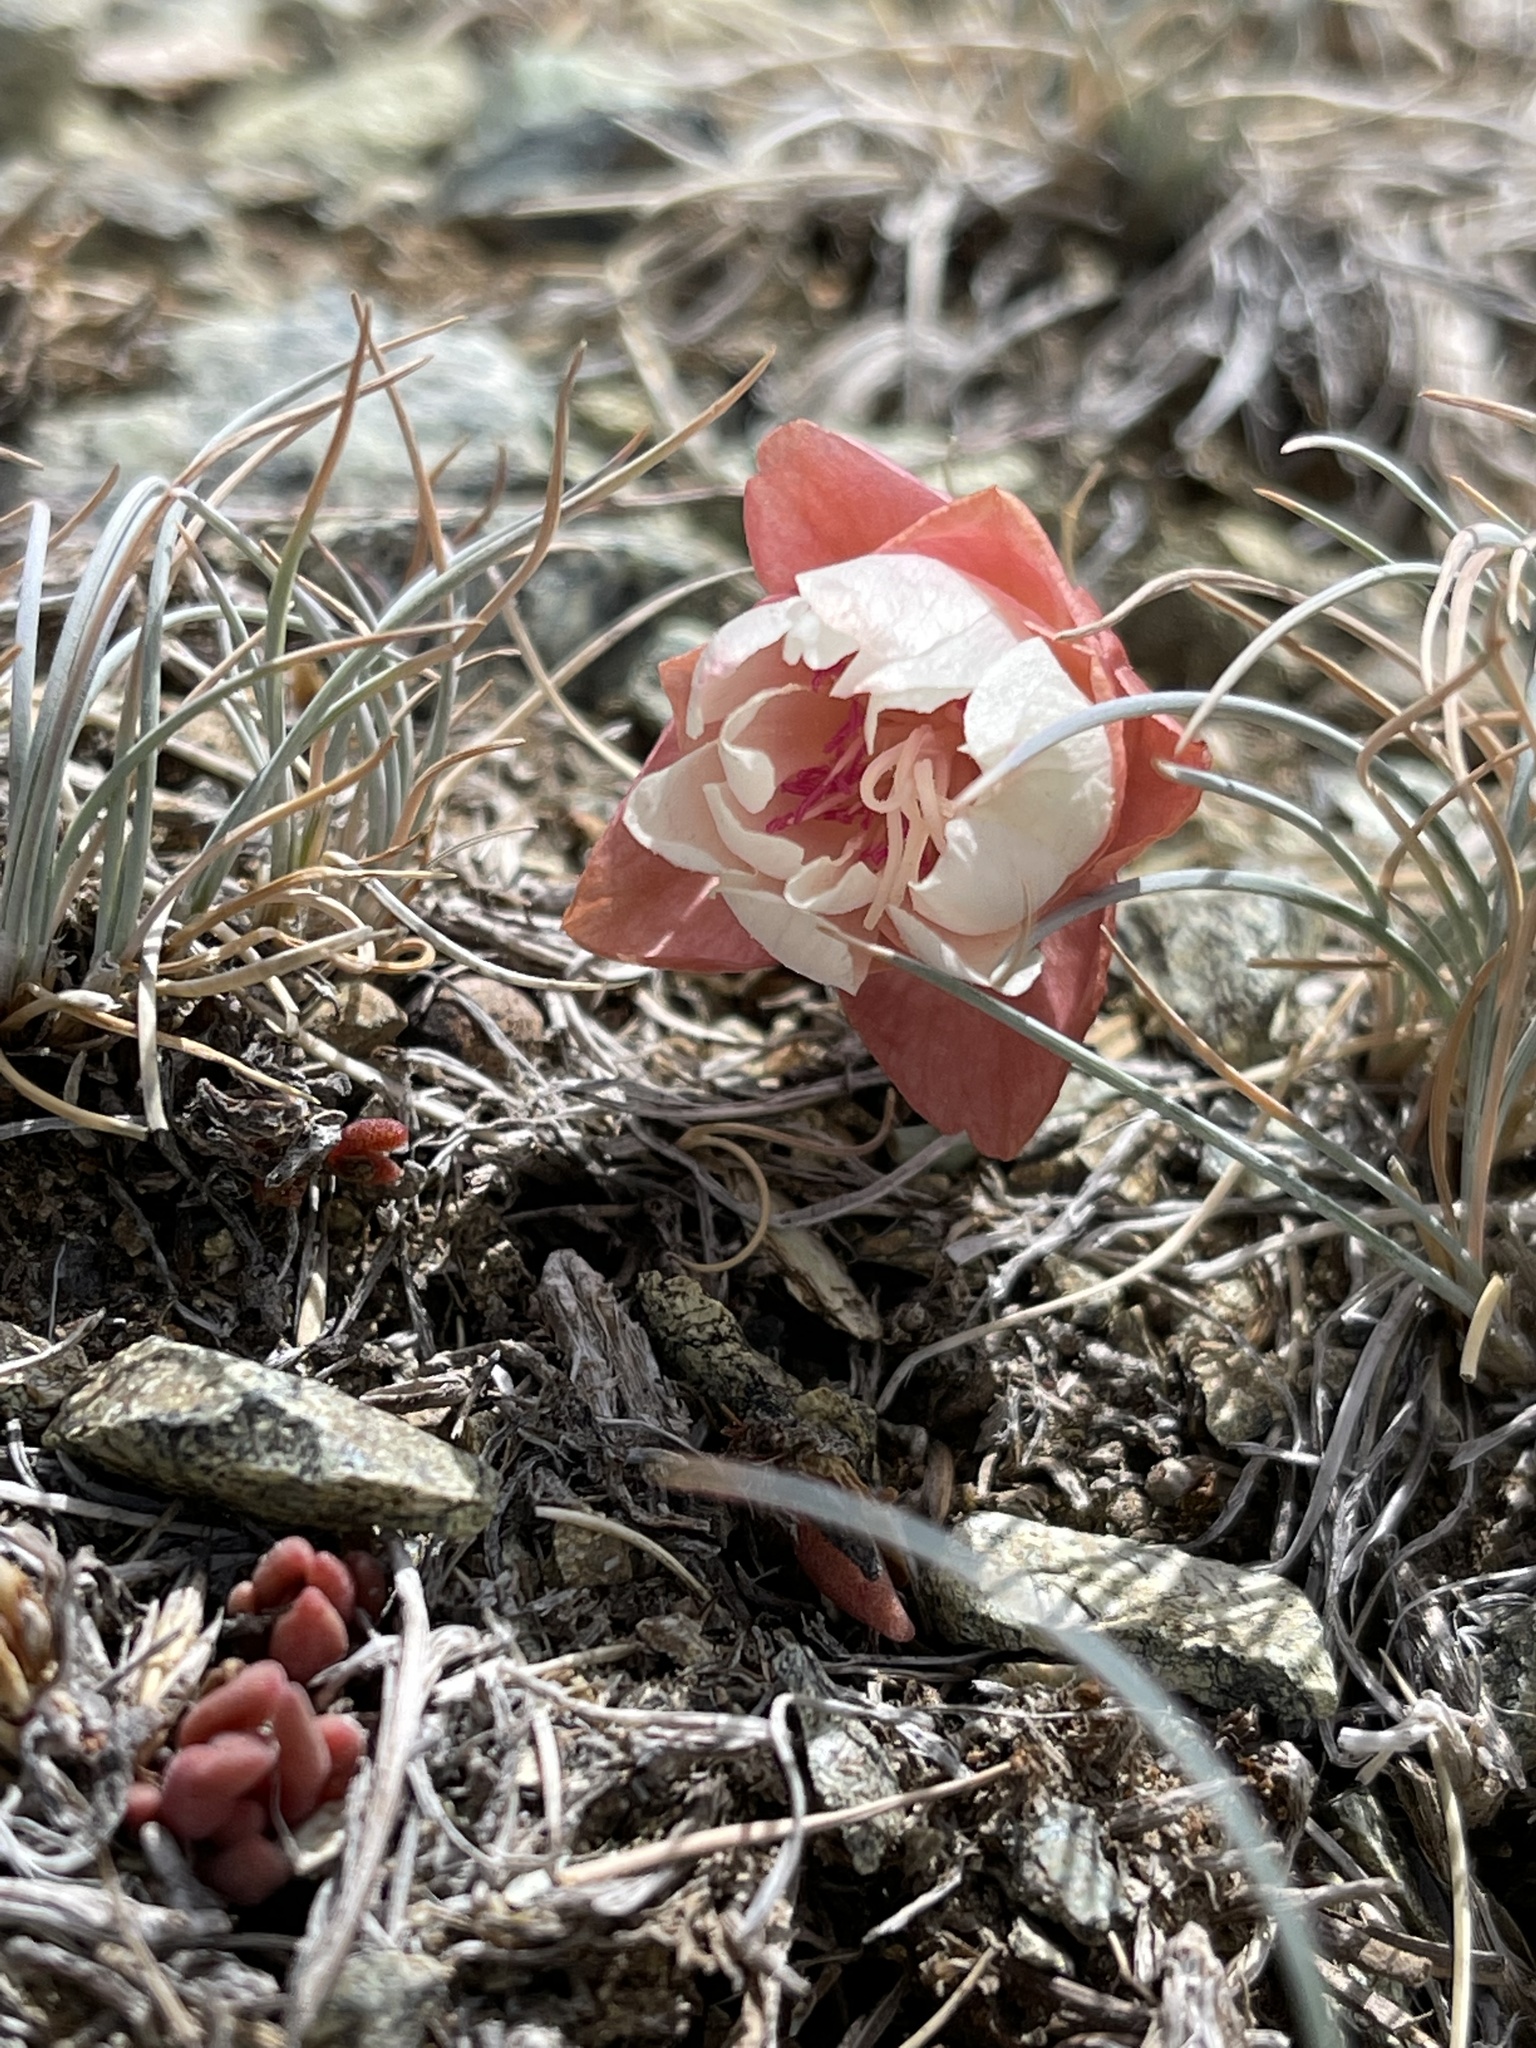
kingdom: Plantae
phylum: Tracheophyta
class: Magnoliopsida
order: Caryophyllales
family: Montiaceae
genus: Lewisia
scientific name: Lewisia rediviva
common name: Bitter-root
